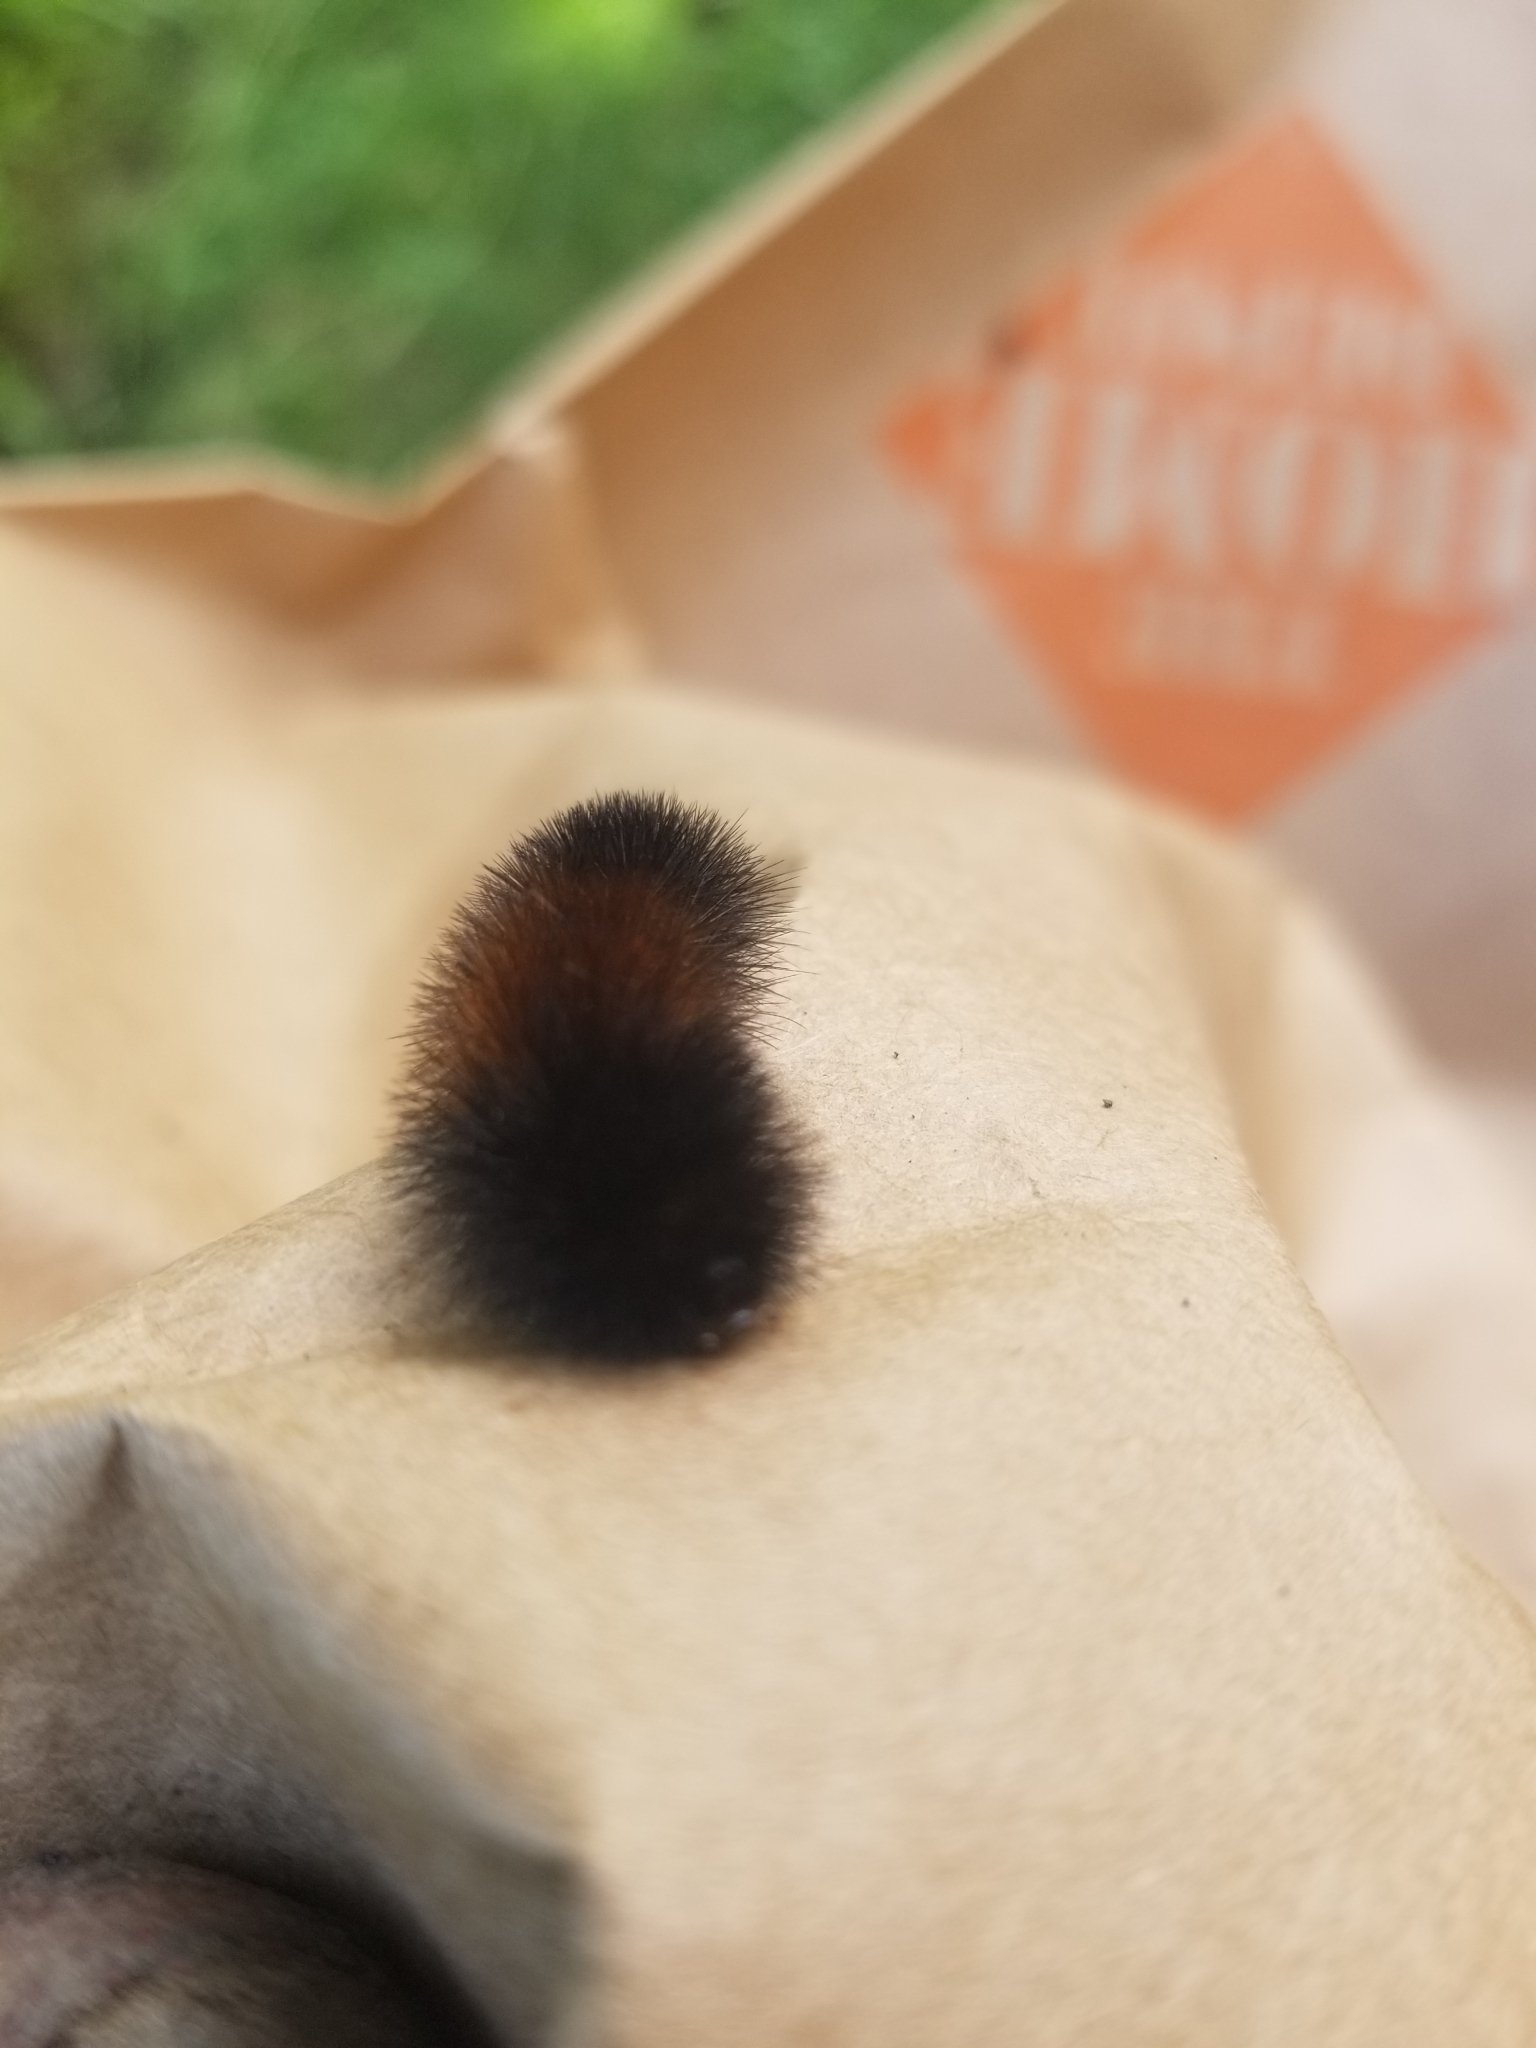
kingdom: Animalia
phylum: Arthropoda
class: Insecta
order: Lepidoptera
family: Erebidae
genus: Pyrrharctia
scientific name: Pyrrharctia isabella
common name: Isabella tiger moth
